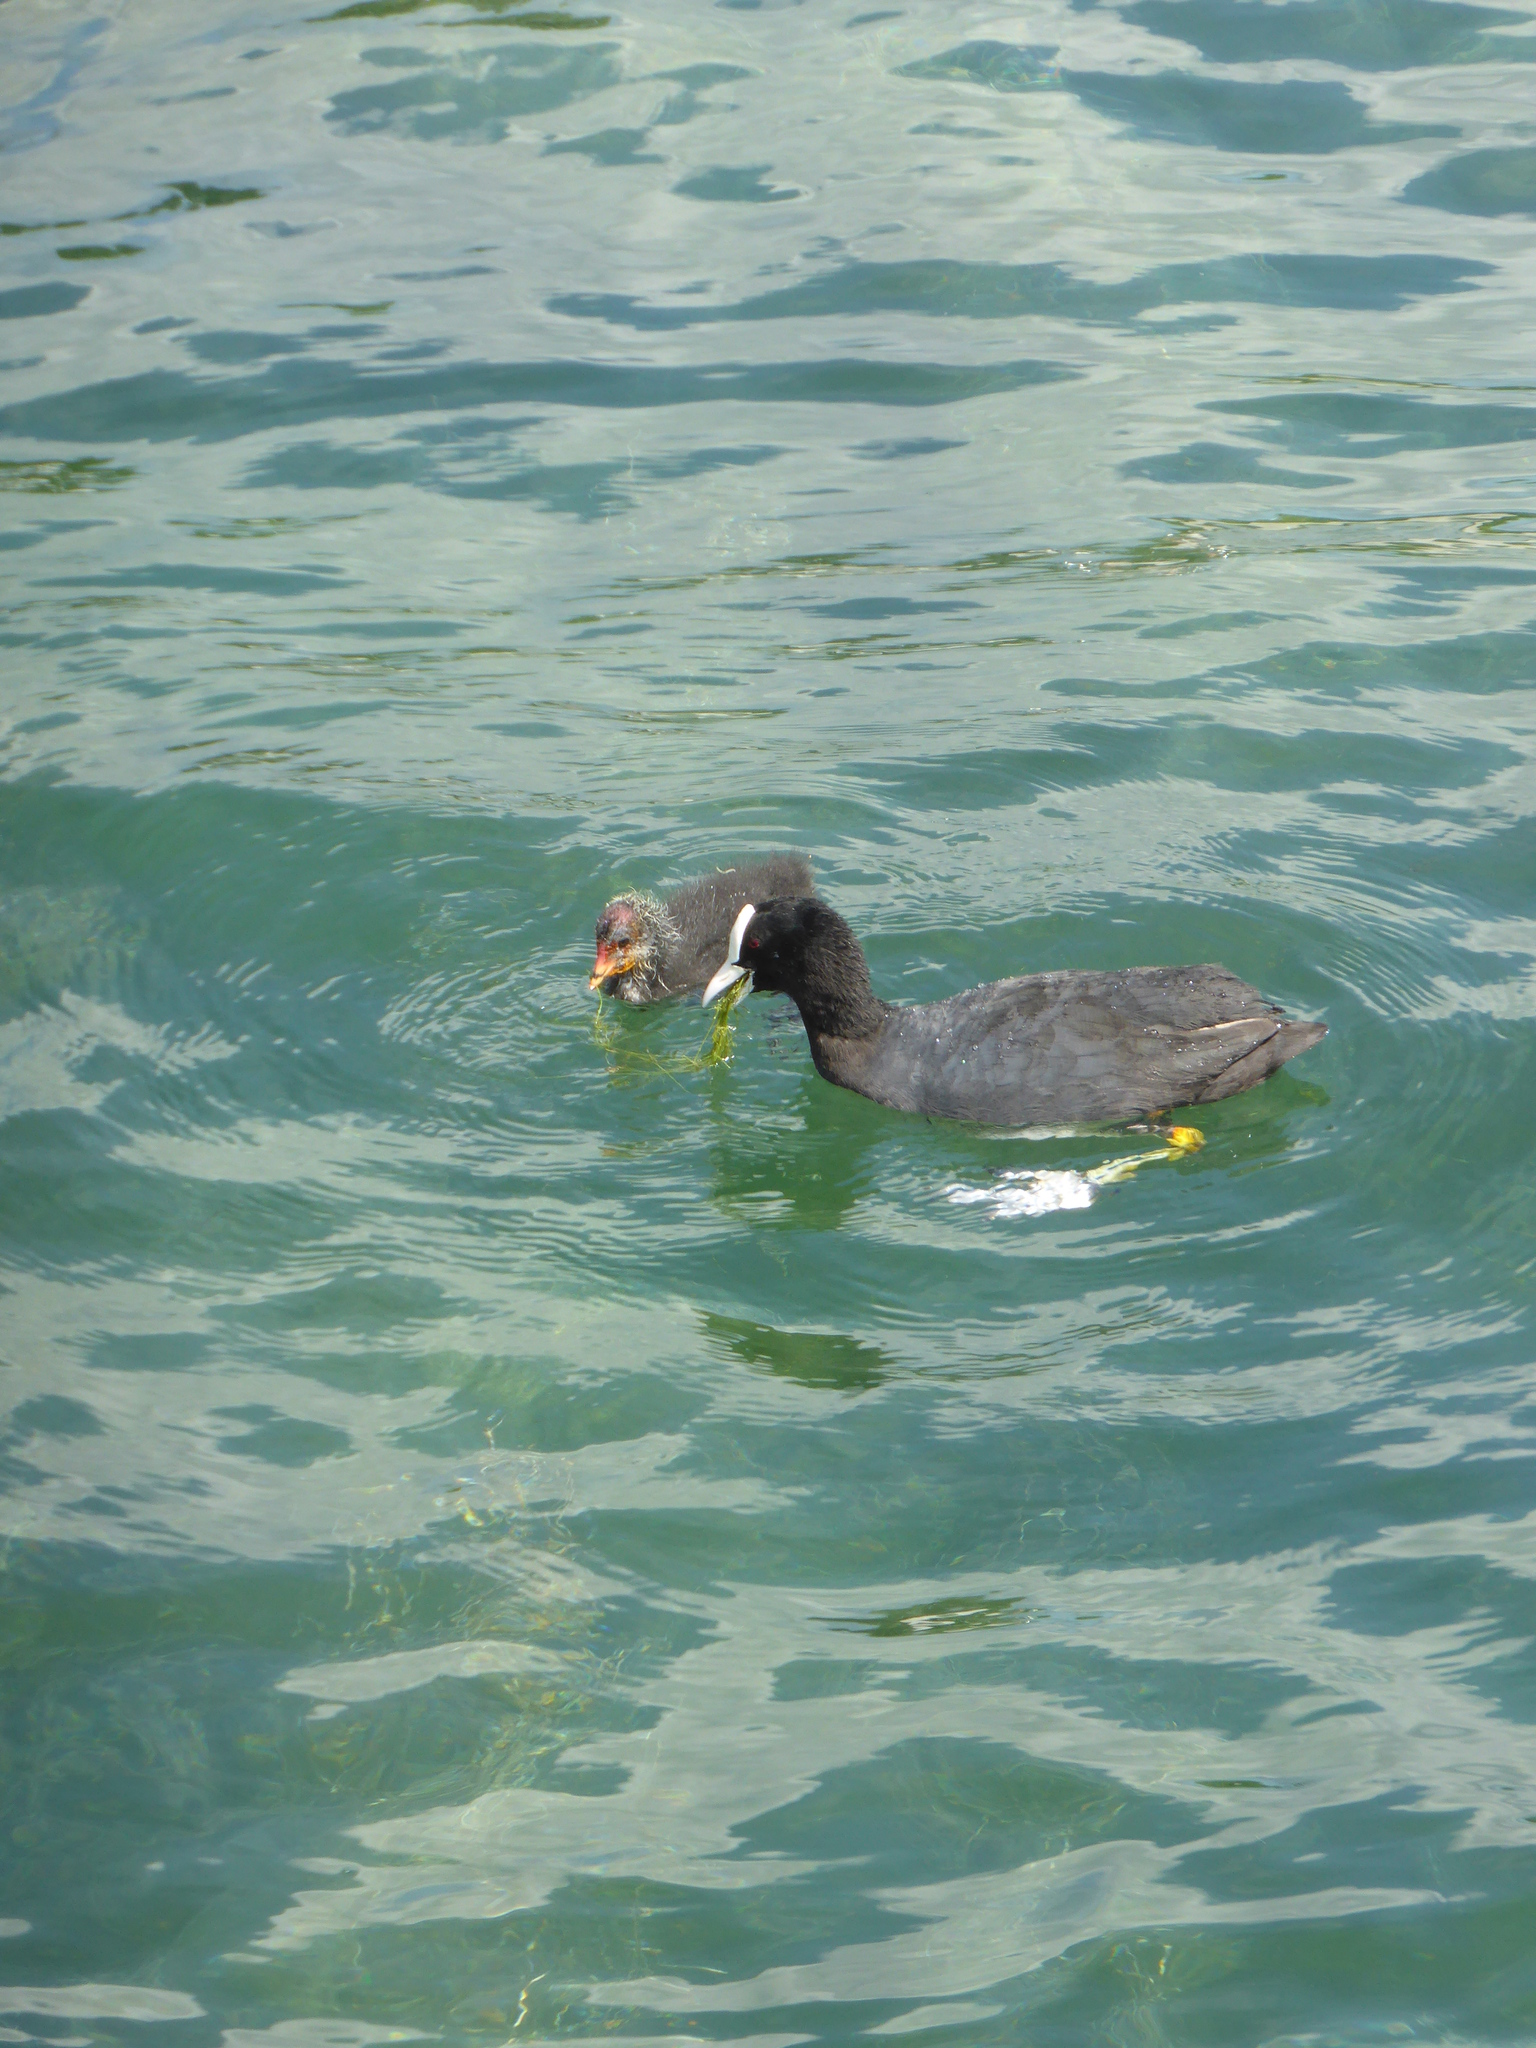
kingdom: Animalia
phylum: Chordata
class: Aves
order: Gruiformes
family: Rallidae
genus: Fulica
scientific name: Fulica atra
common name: Eurasian coot
